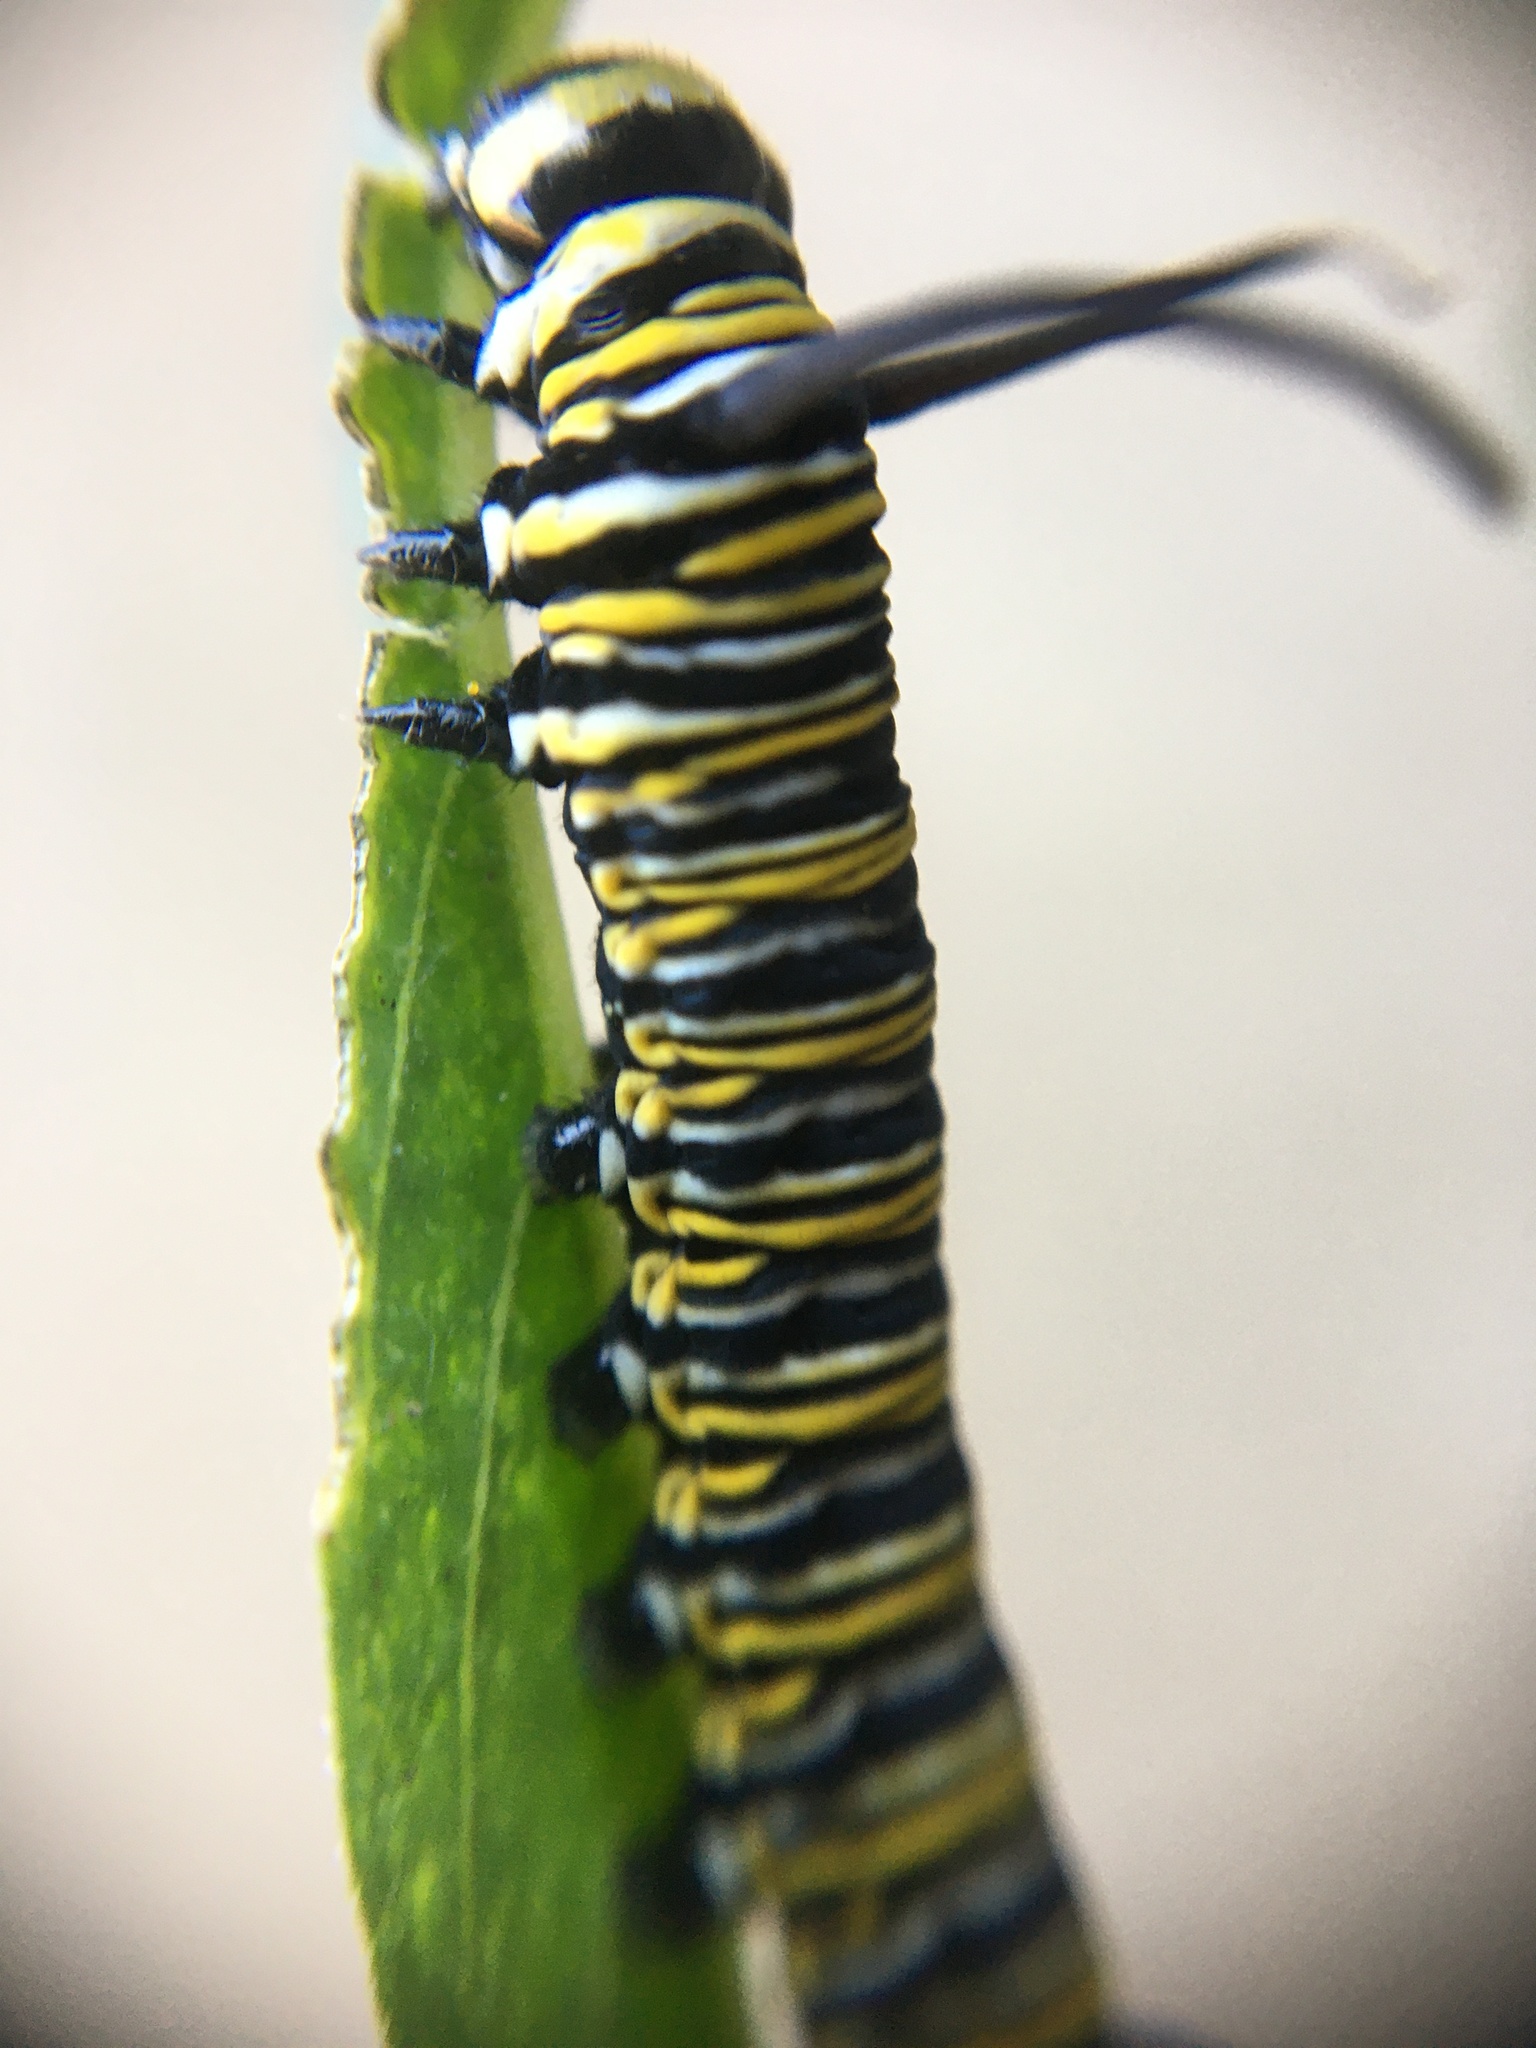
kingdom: Animalia
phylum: Arthropoda
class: Insecta
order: Lepidoptera
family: Nymphalidae
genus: Danaus
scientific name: Danaus plexippus
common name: Monarch
